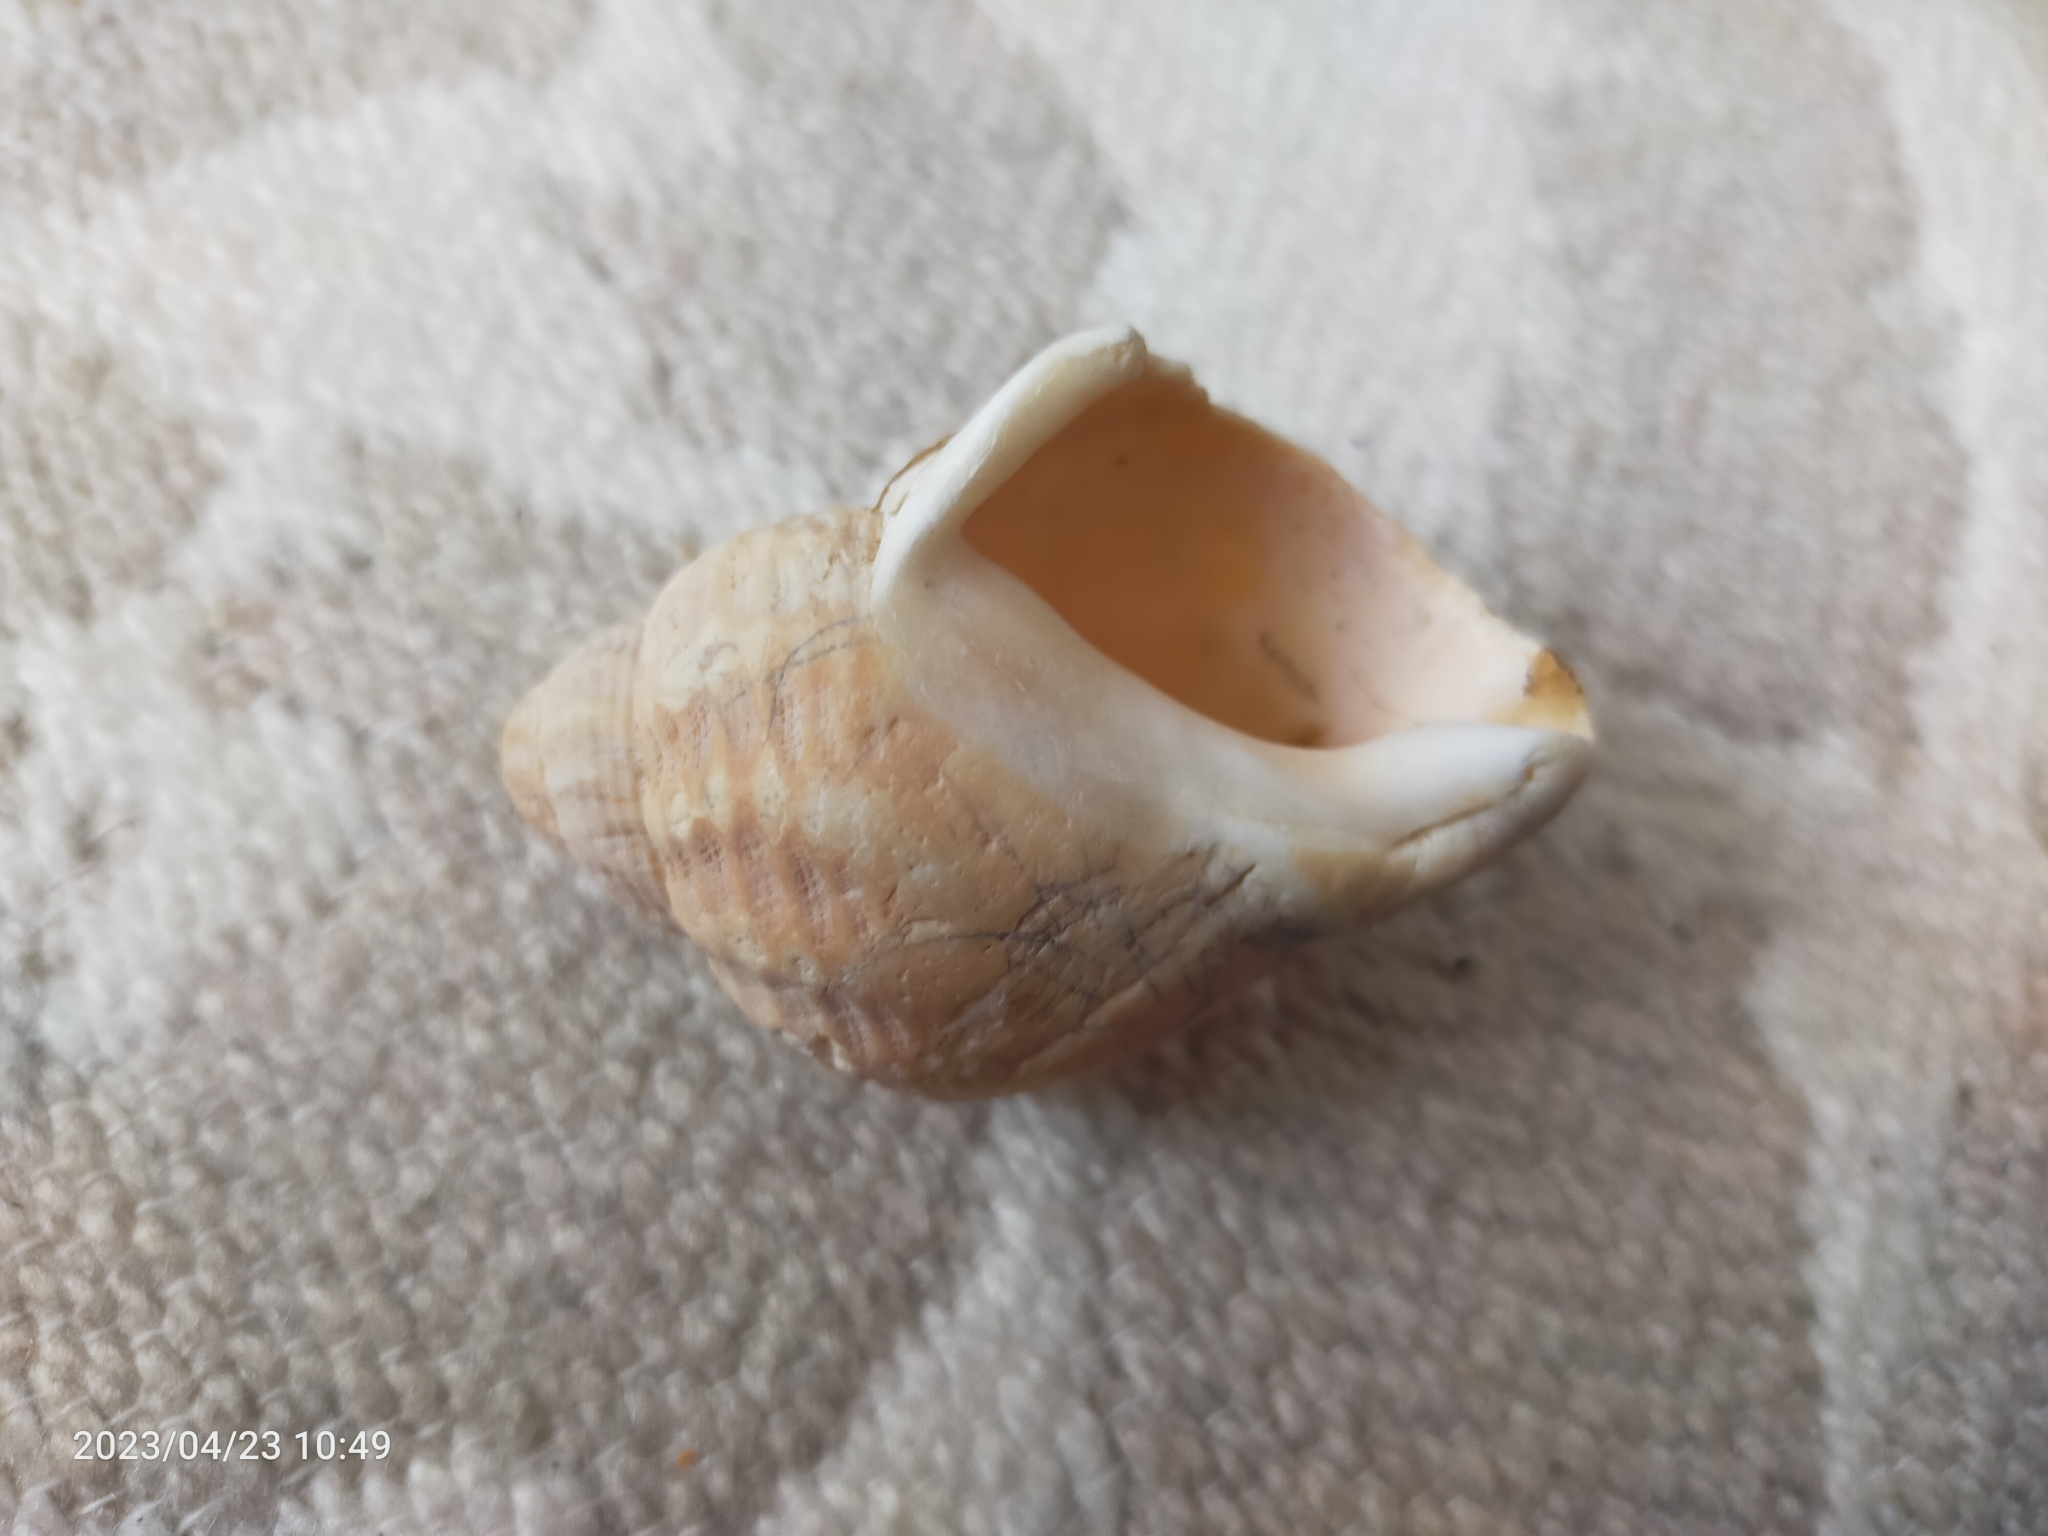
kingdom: Animalia
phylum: Mollusca
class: Gastropoda
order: Neogastropoda
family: Buccinidae
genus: Buccinum
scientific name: Buccinum undatum
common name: Common whelk
